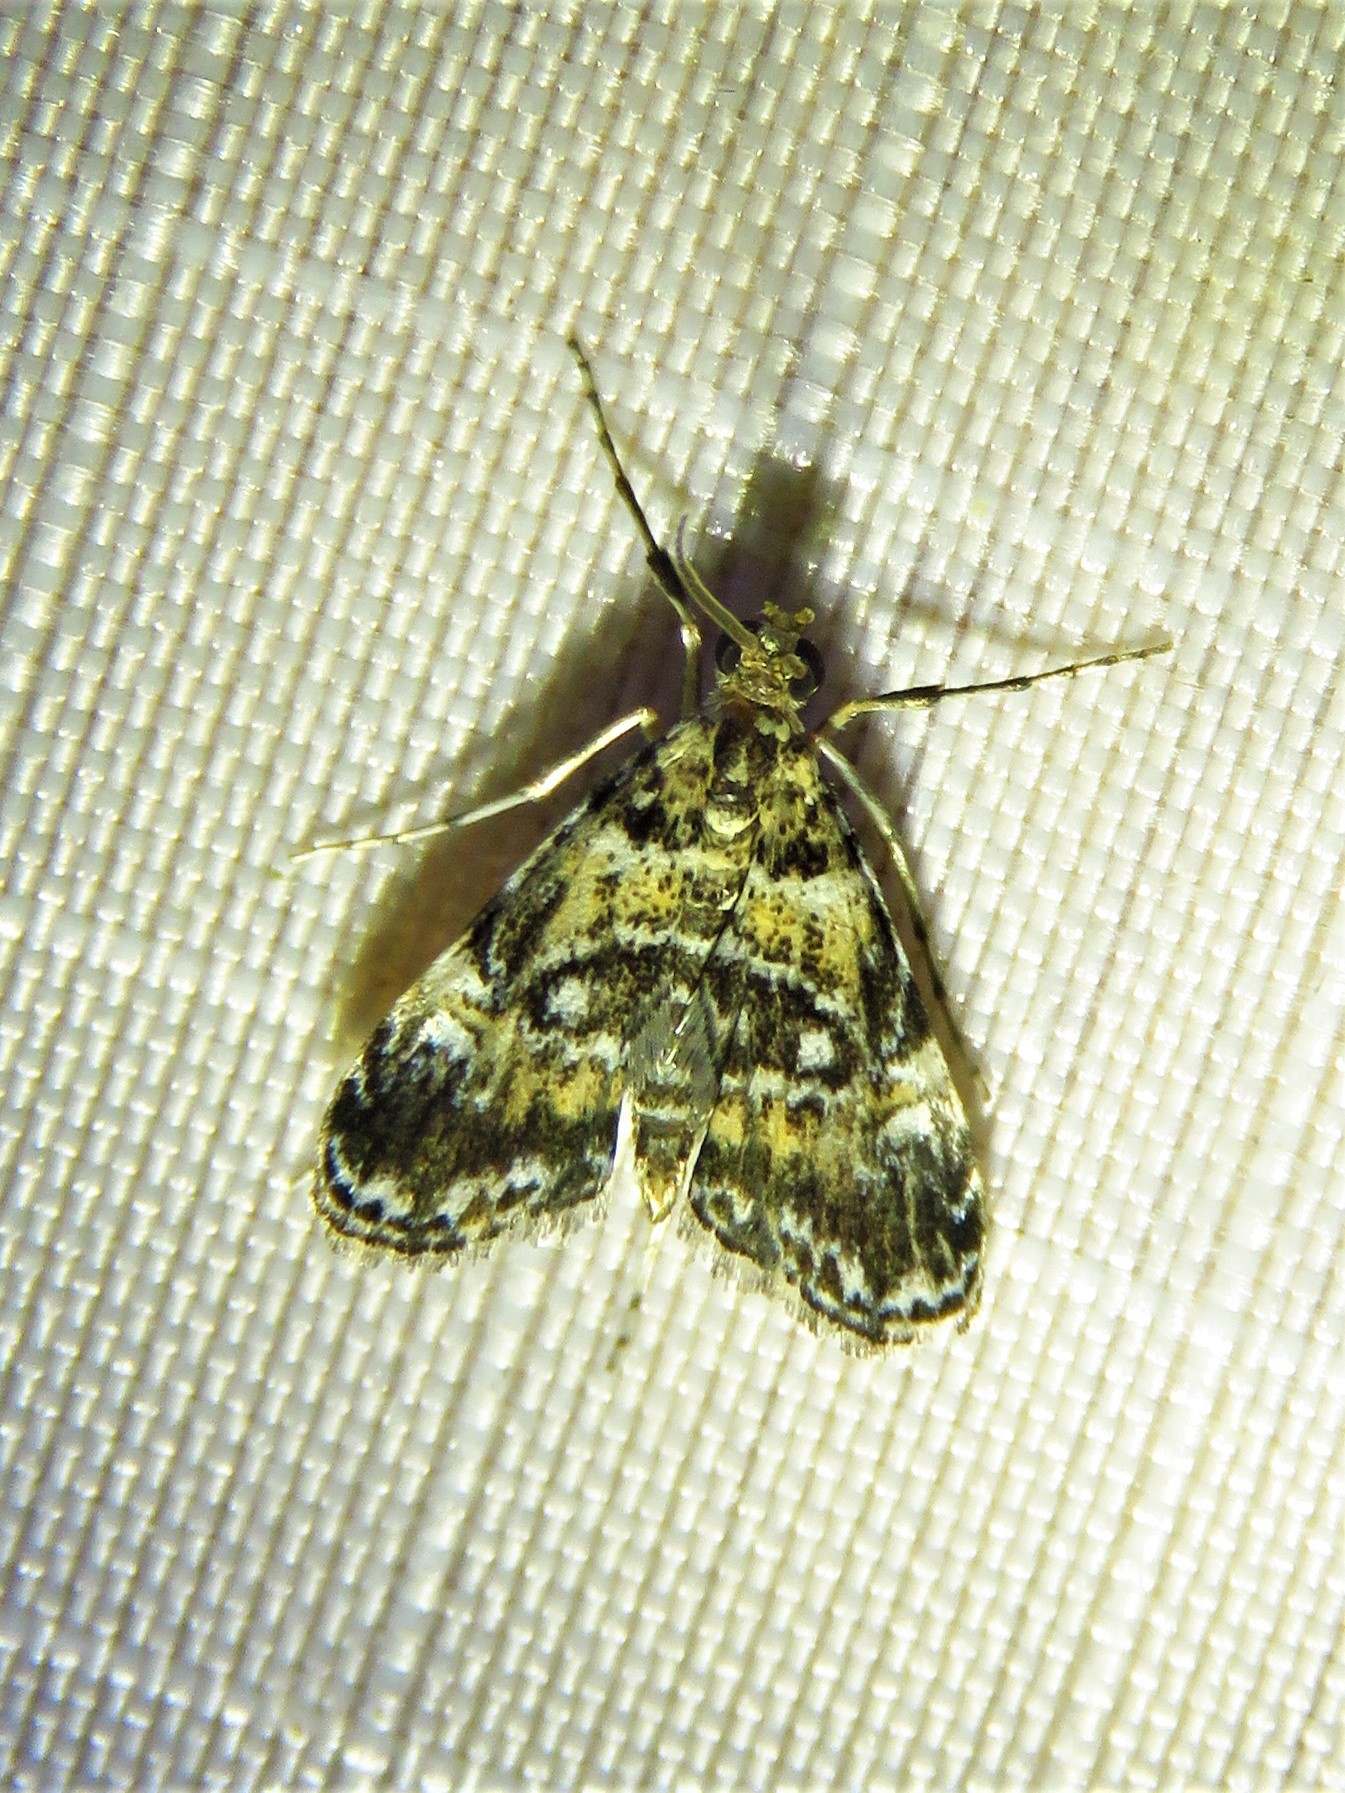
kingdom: Animalia
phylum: Arthropoda
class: Insecta
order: Lepidoptera
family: Crambidae
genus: Elophila
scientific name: Elophila obliteralis
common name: Waterlily leafcutter moth
